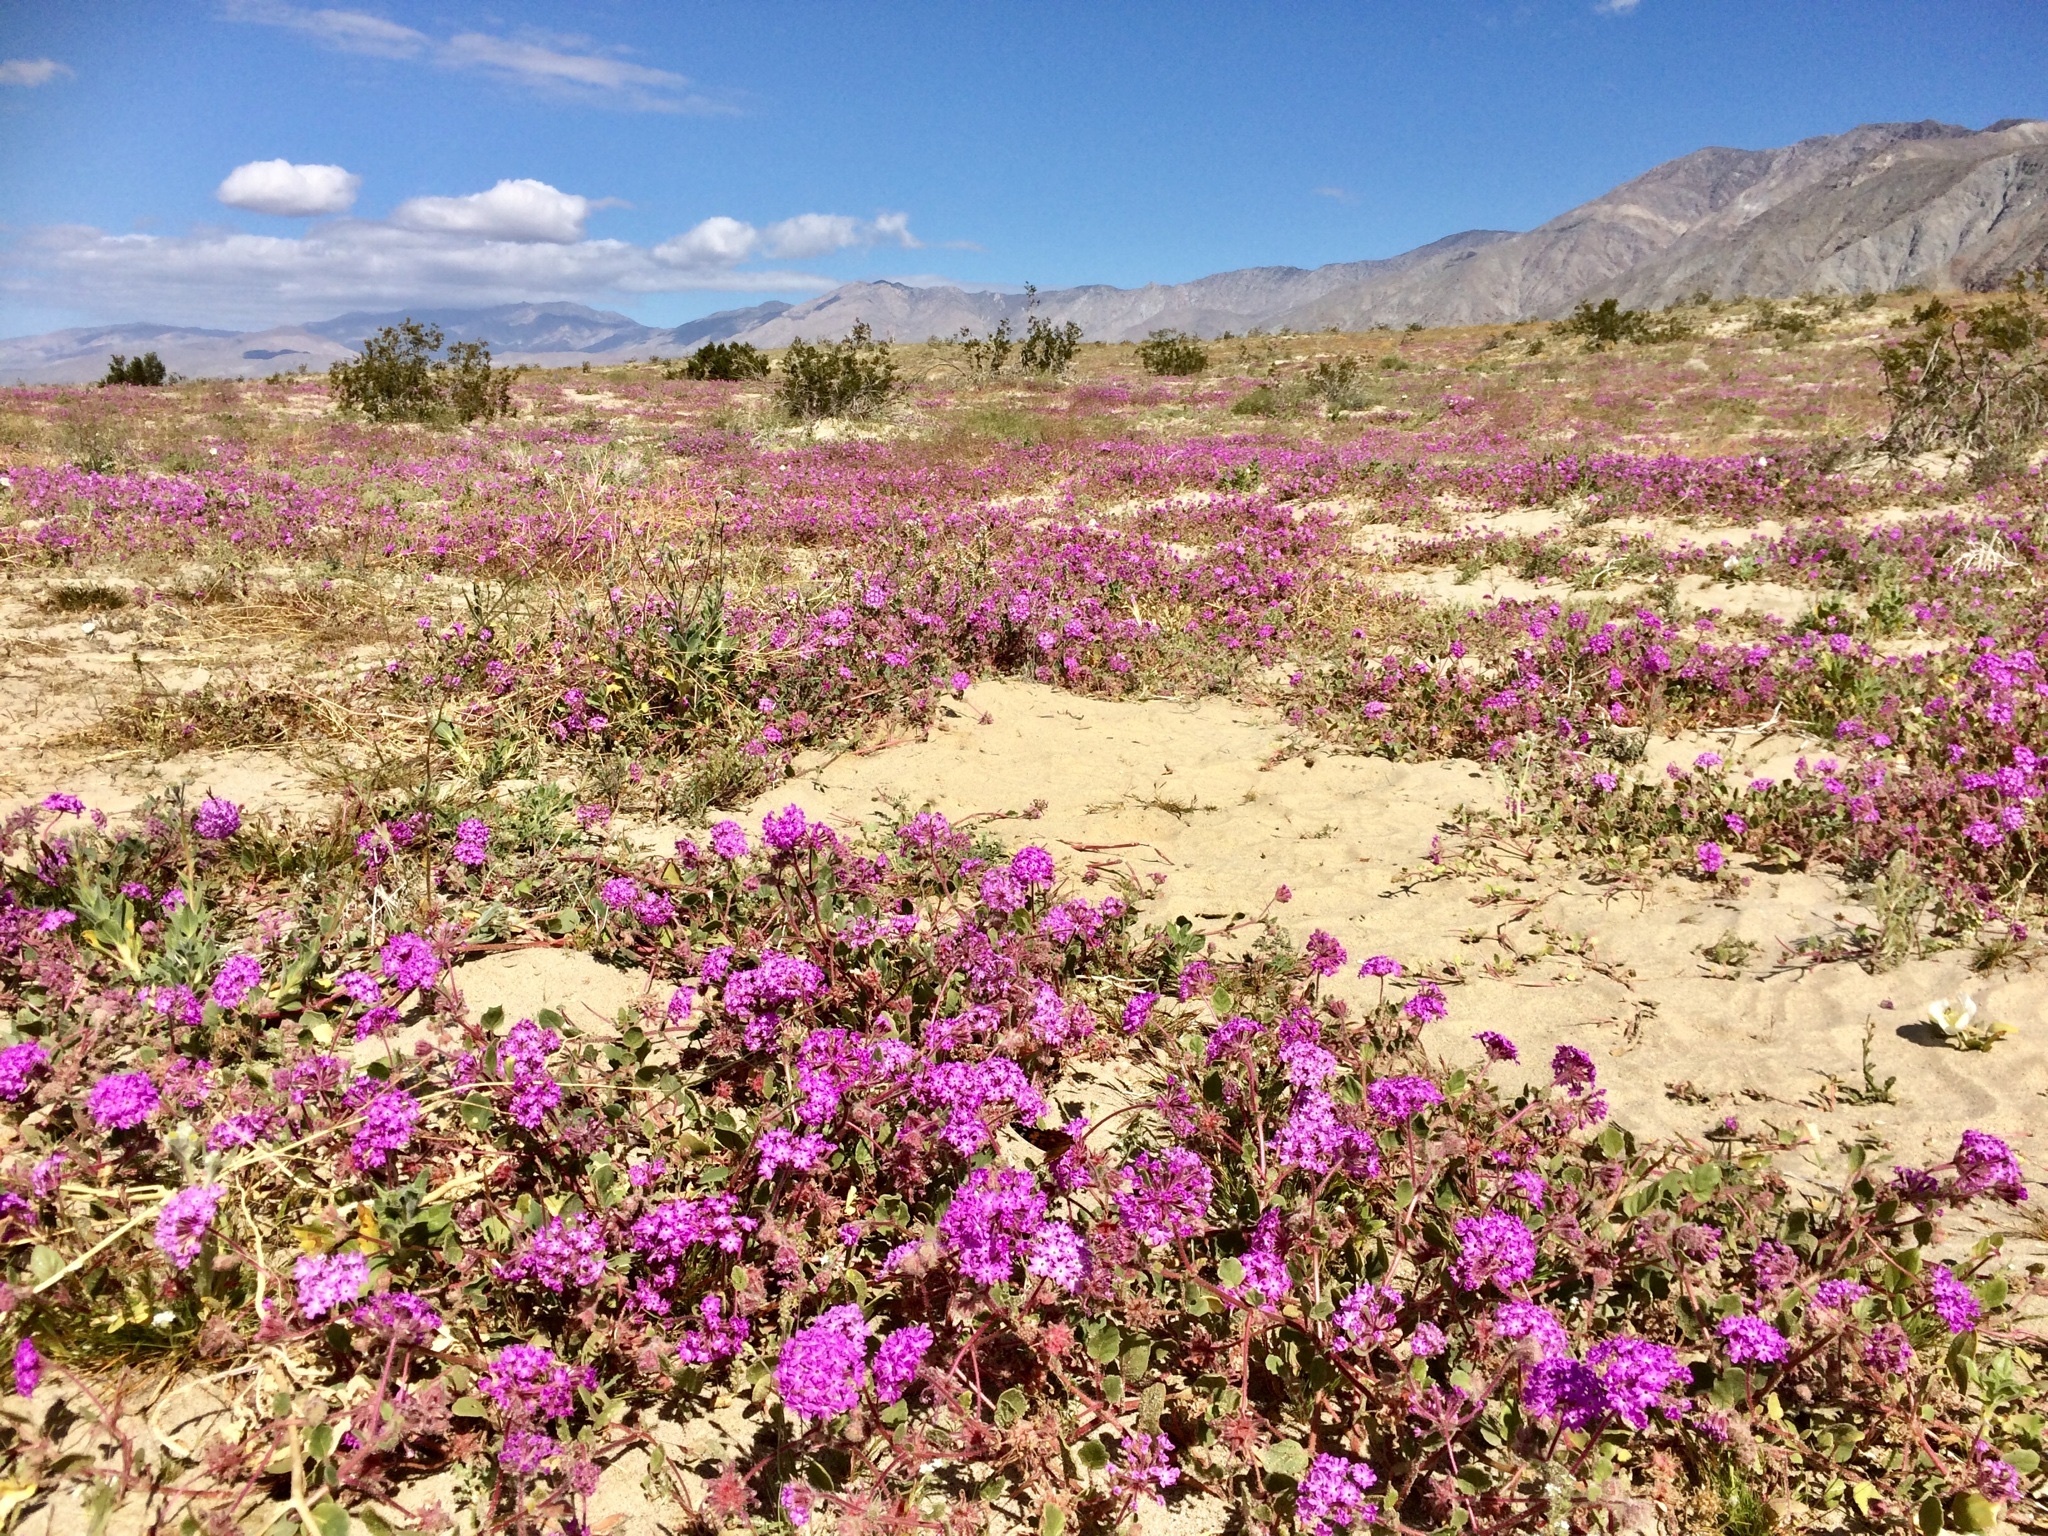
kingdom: Plantae
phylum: Tracheophyta
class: Magnoliopsida
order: Caryophyllales
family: Nyctaginaceae
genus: Abronia
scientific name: Abronia villosa
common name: Desert sand-verbena
